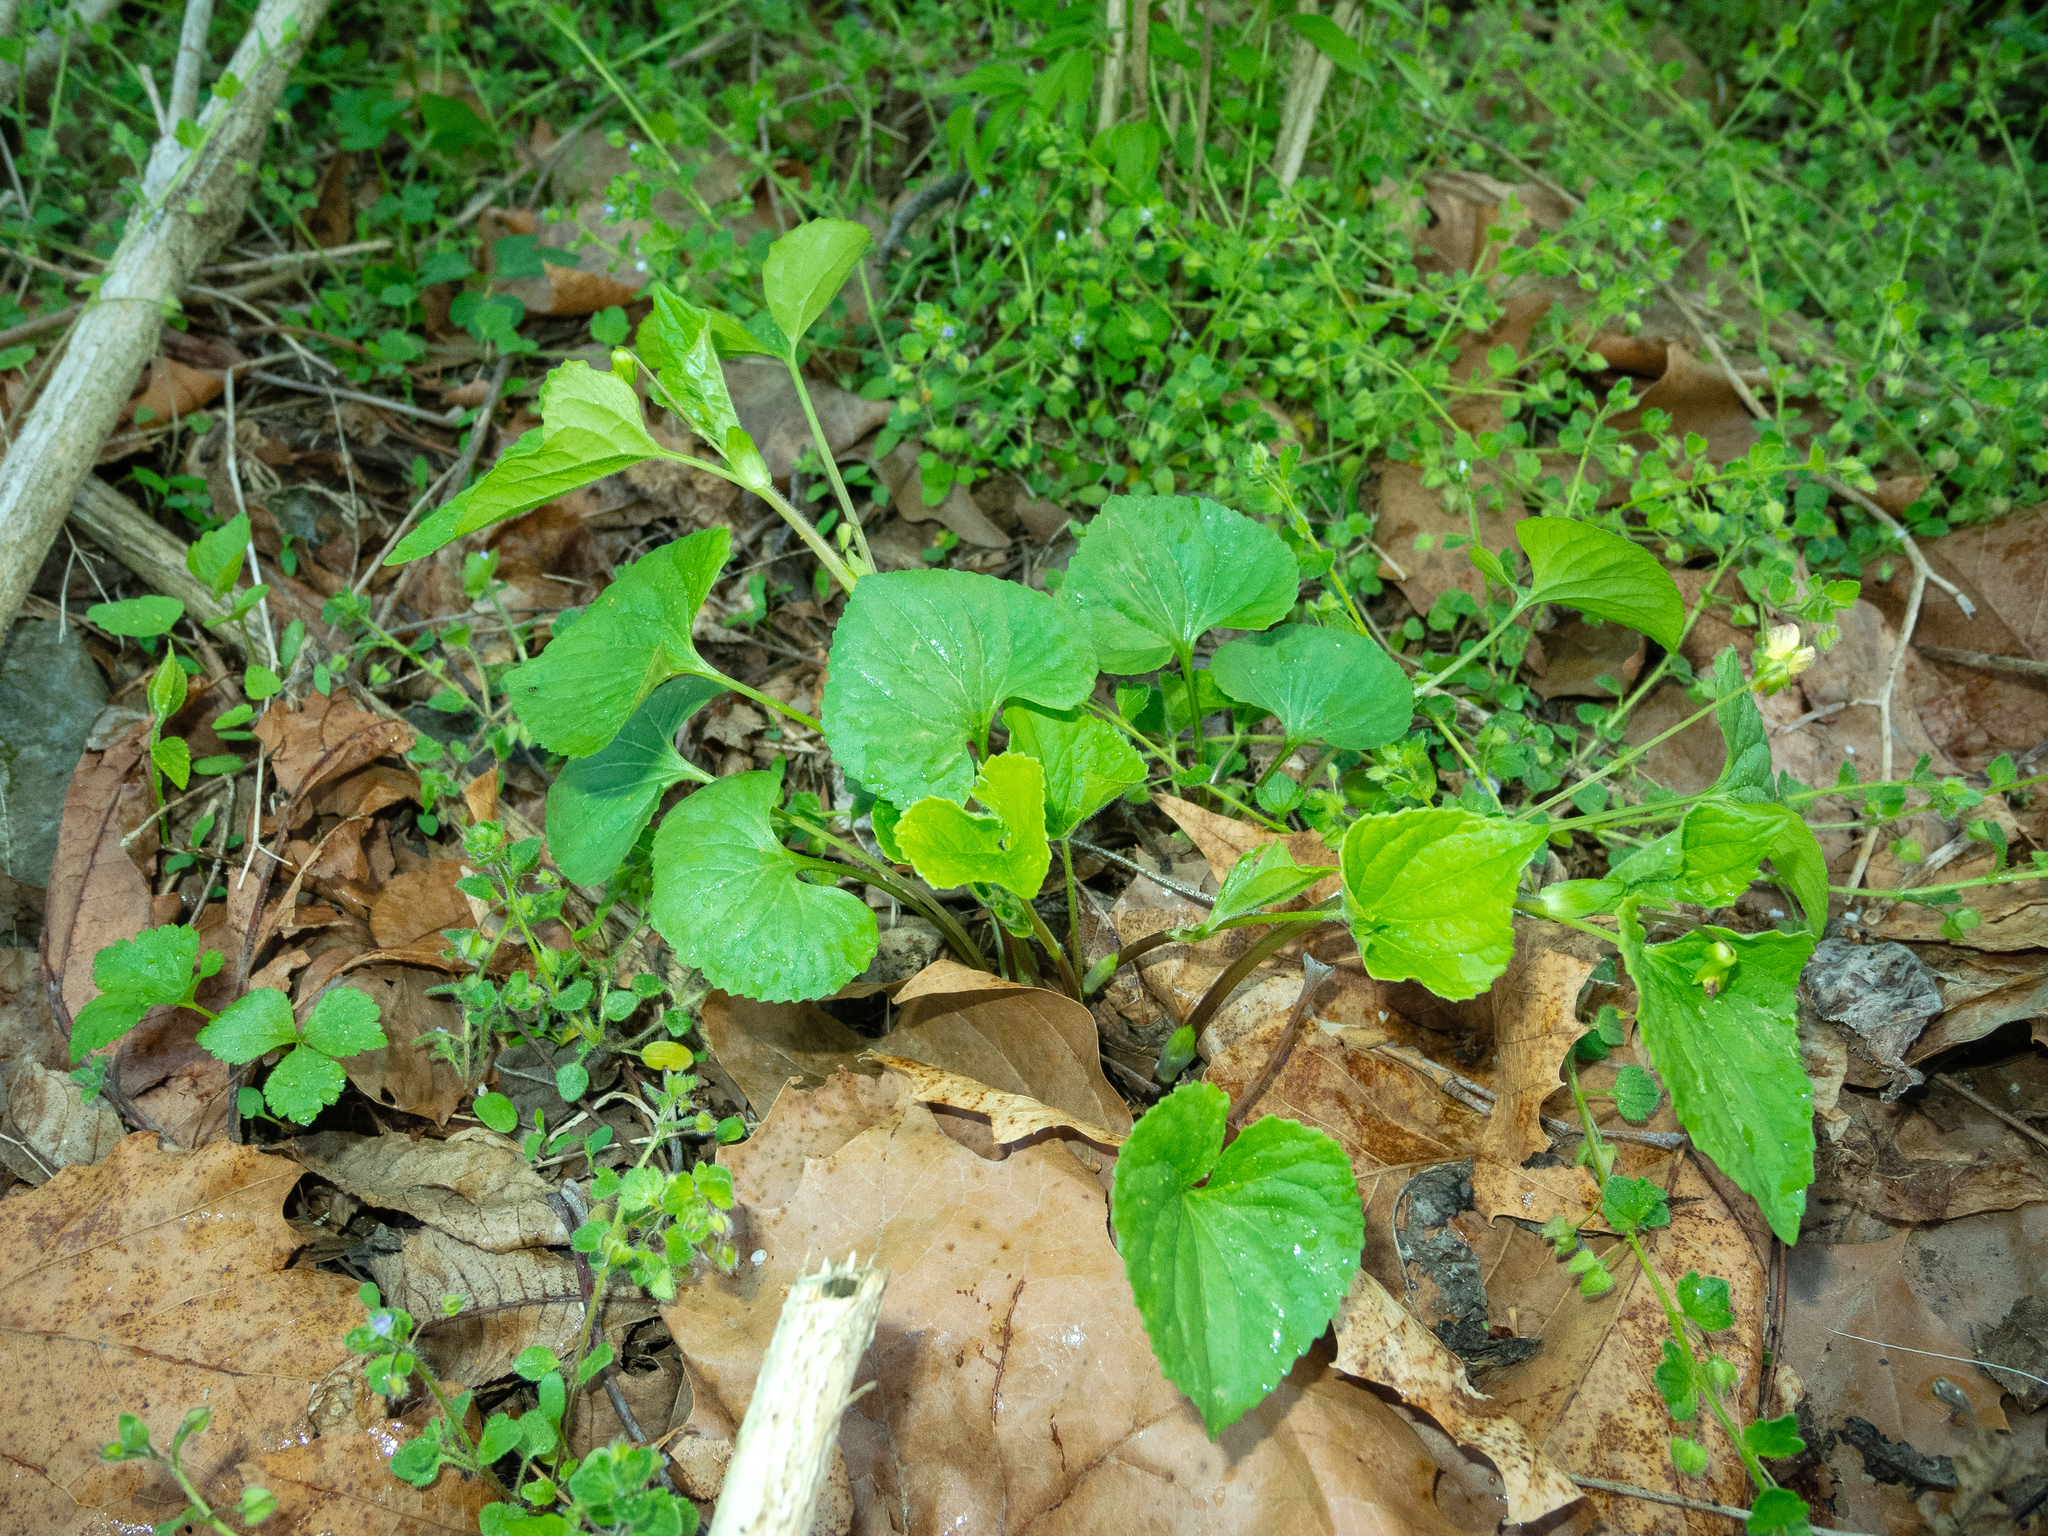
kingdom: Plantae
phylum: Tracheophyta
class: Magnoliopsida
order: Malpighiales
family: Violaceae
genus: Viola
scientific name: Viola eriocarpa
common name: Smooth yellow violet
